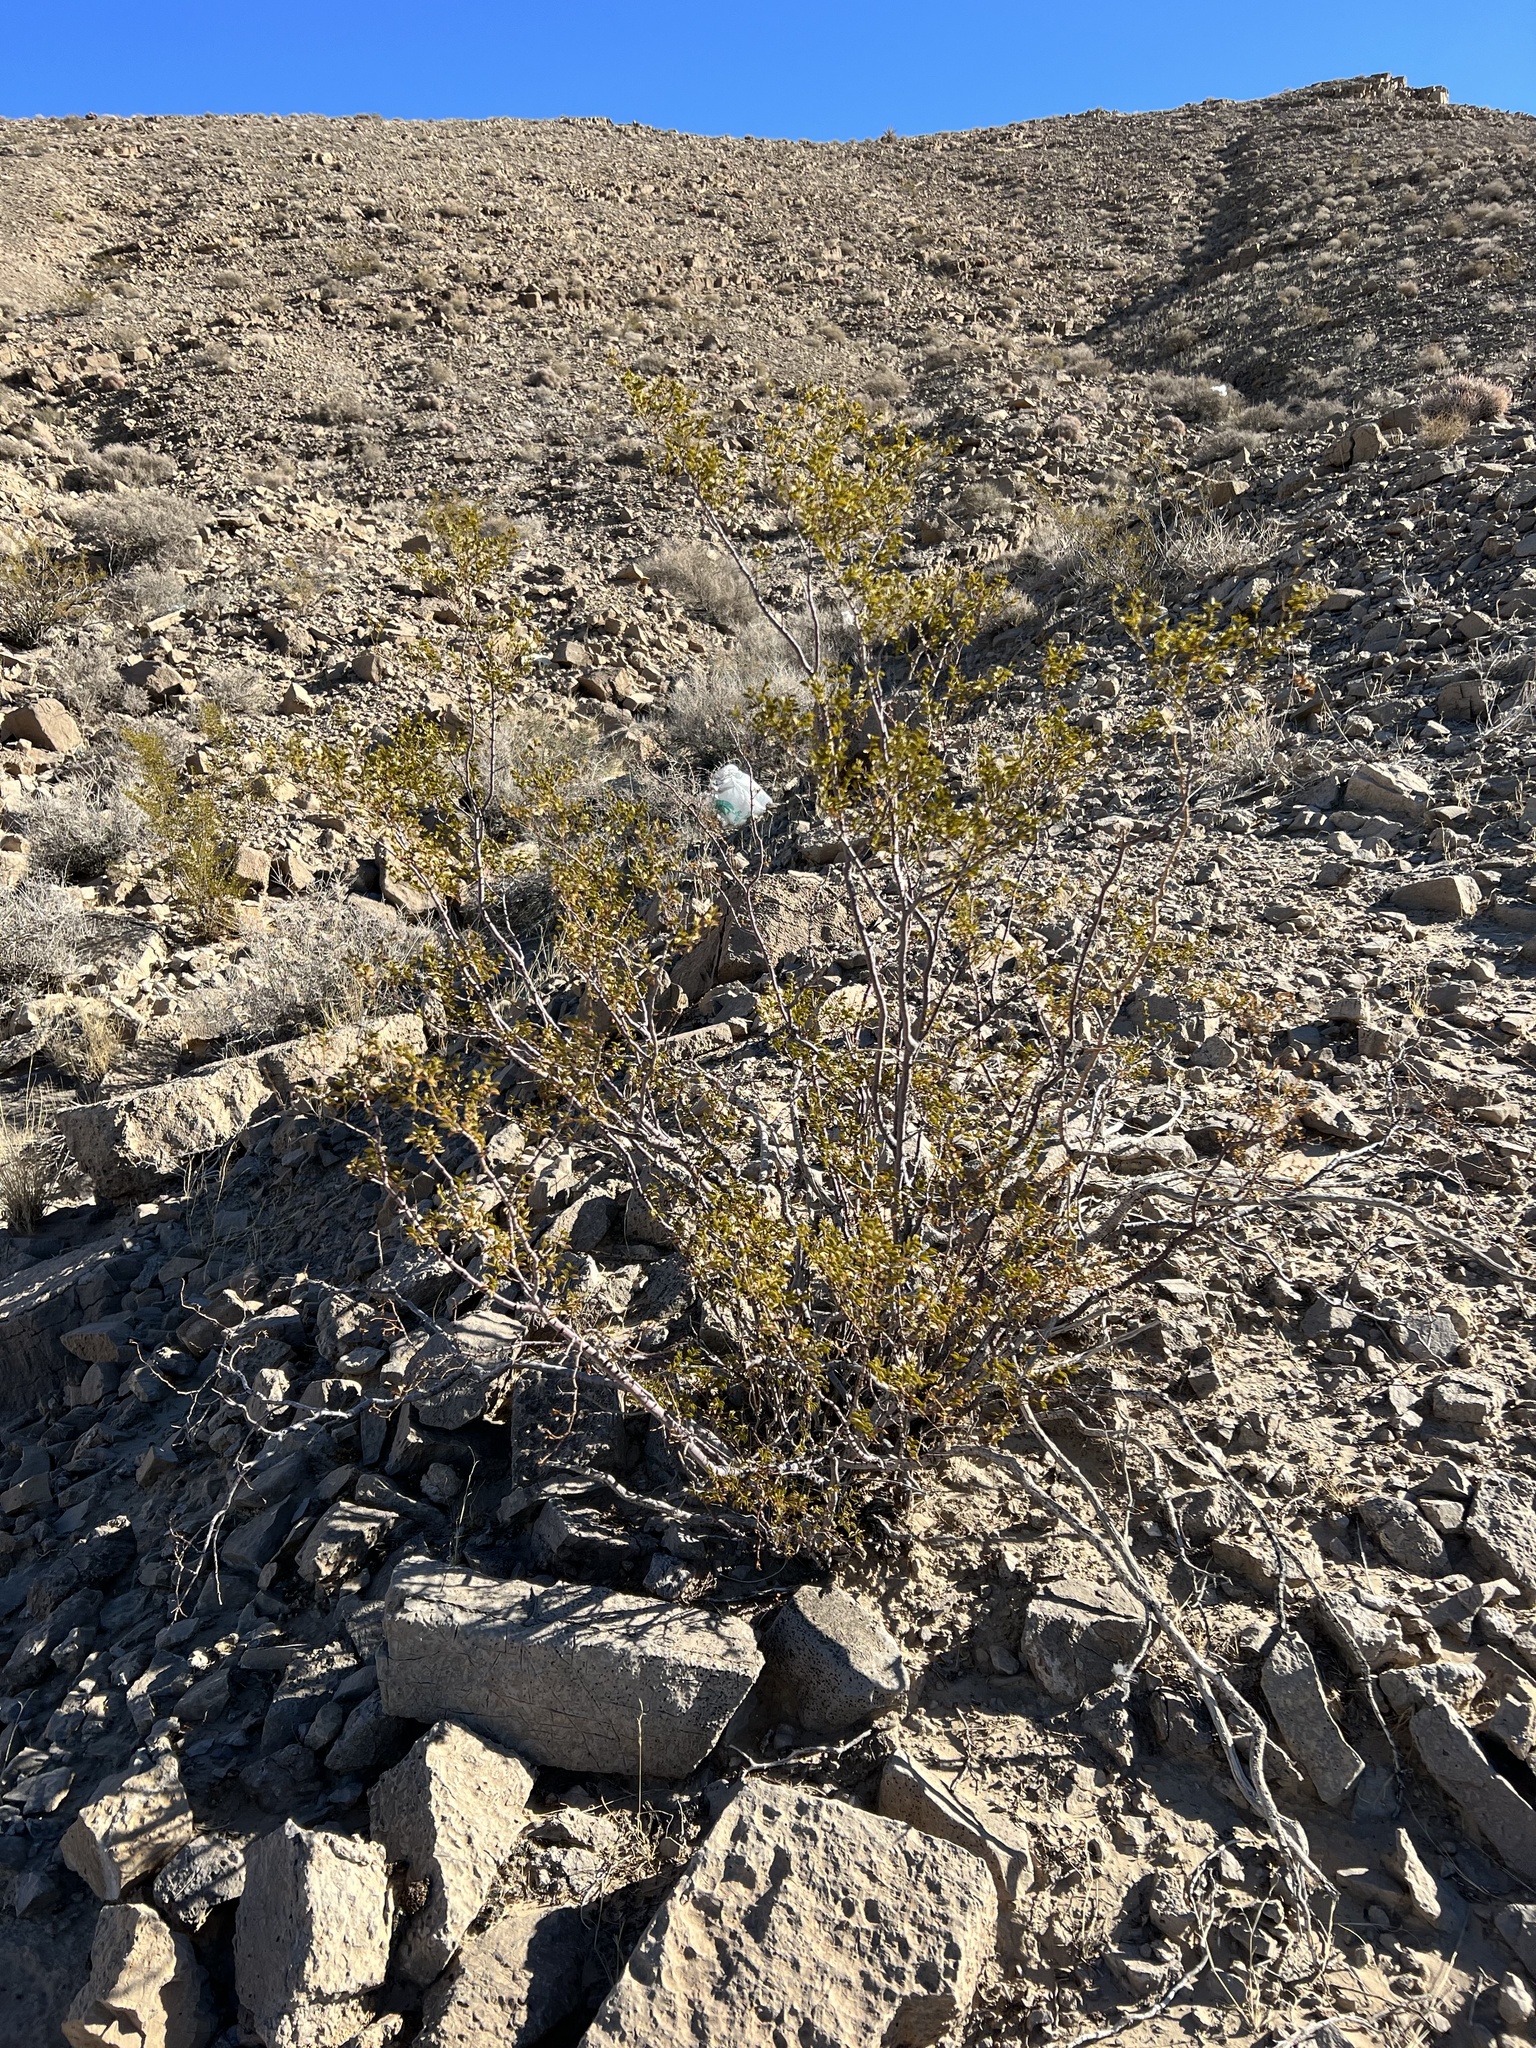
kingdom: Plantae
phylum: Tracheophyta
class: Magnoliopsida
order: Zygophyllales
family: Zygophyllaceae
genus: Larrea
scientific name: Larrea tridentata
